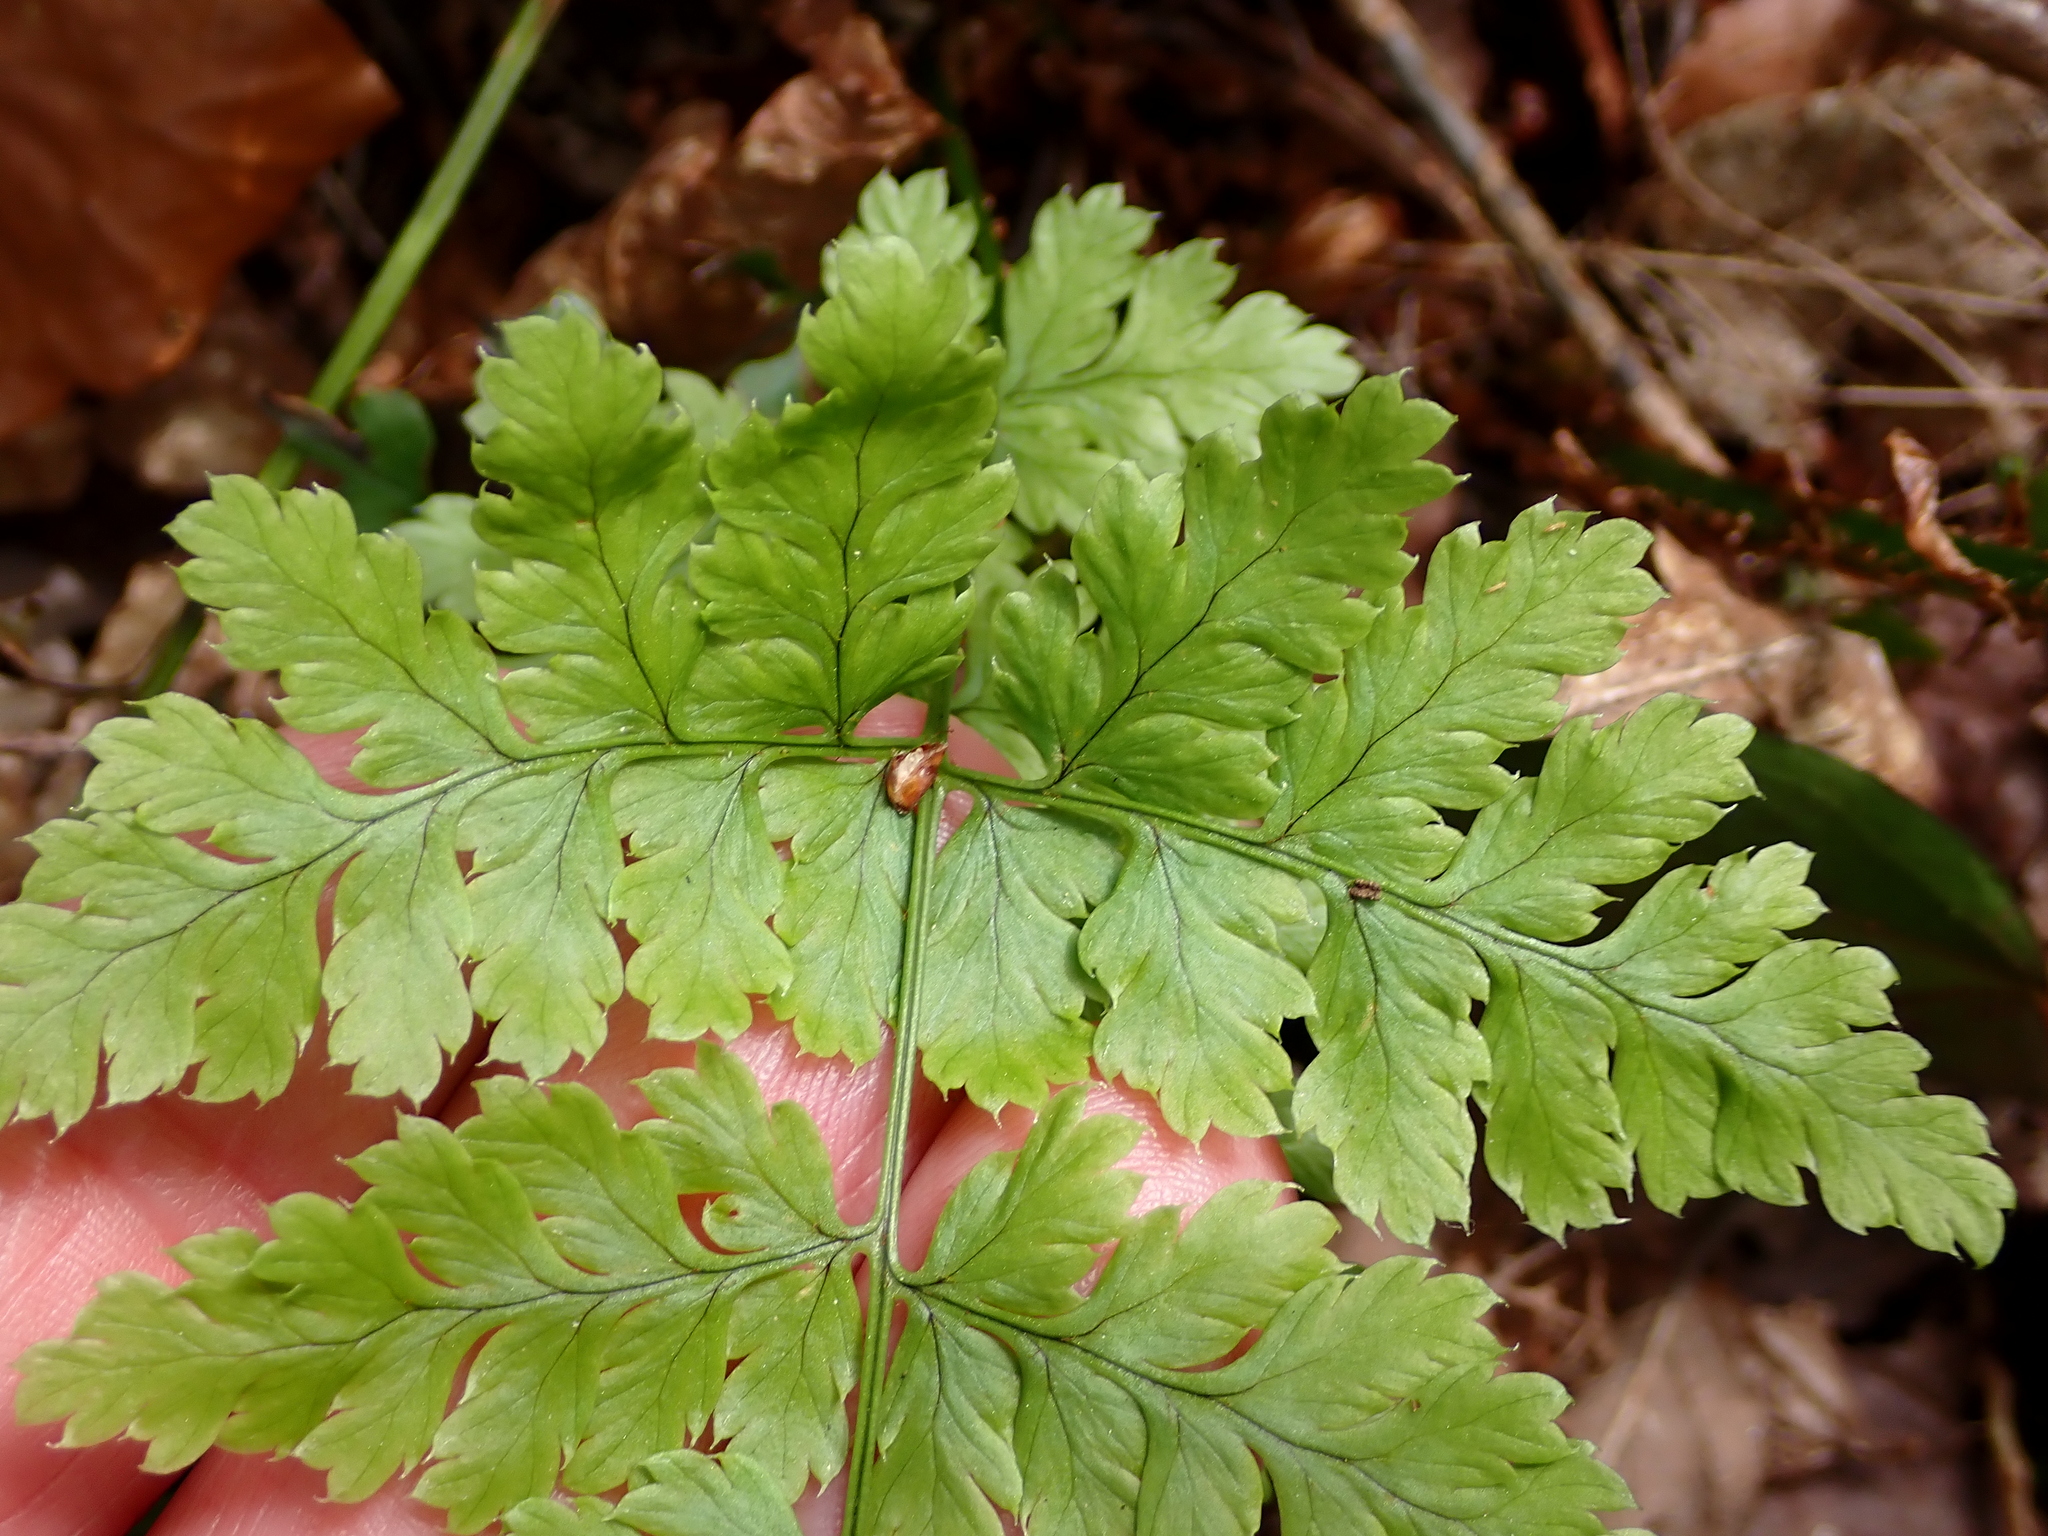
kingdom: Plantae
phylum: Tracheophyta
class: Polypodiopsida
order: Polypodiales
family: Dryopteridaceae
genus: Dryopteris
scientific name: Dryopteris dilatata
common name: Broad buckler-fern
